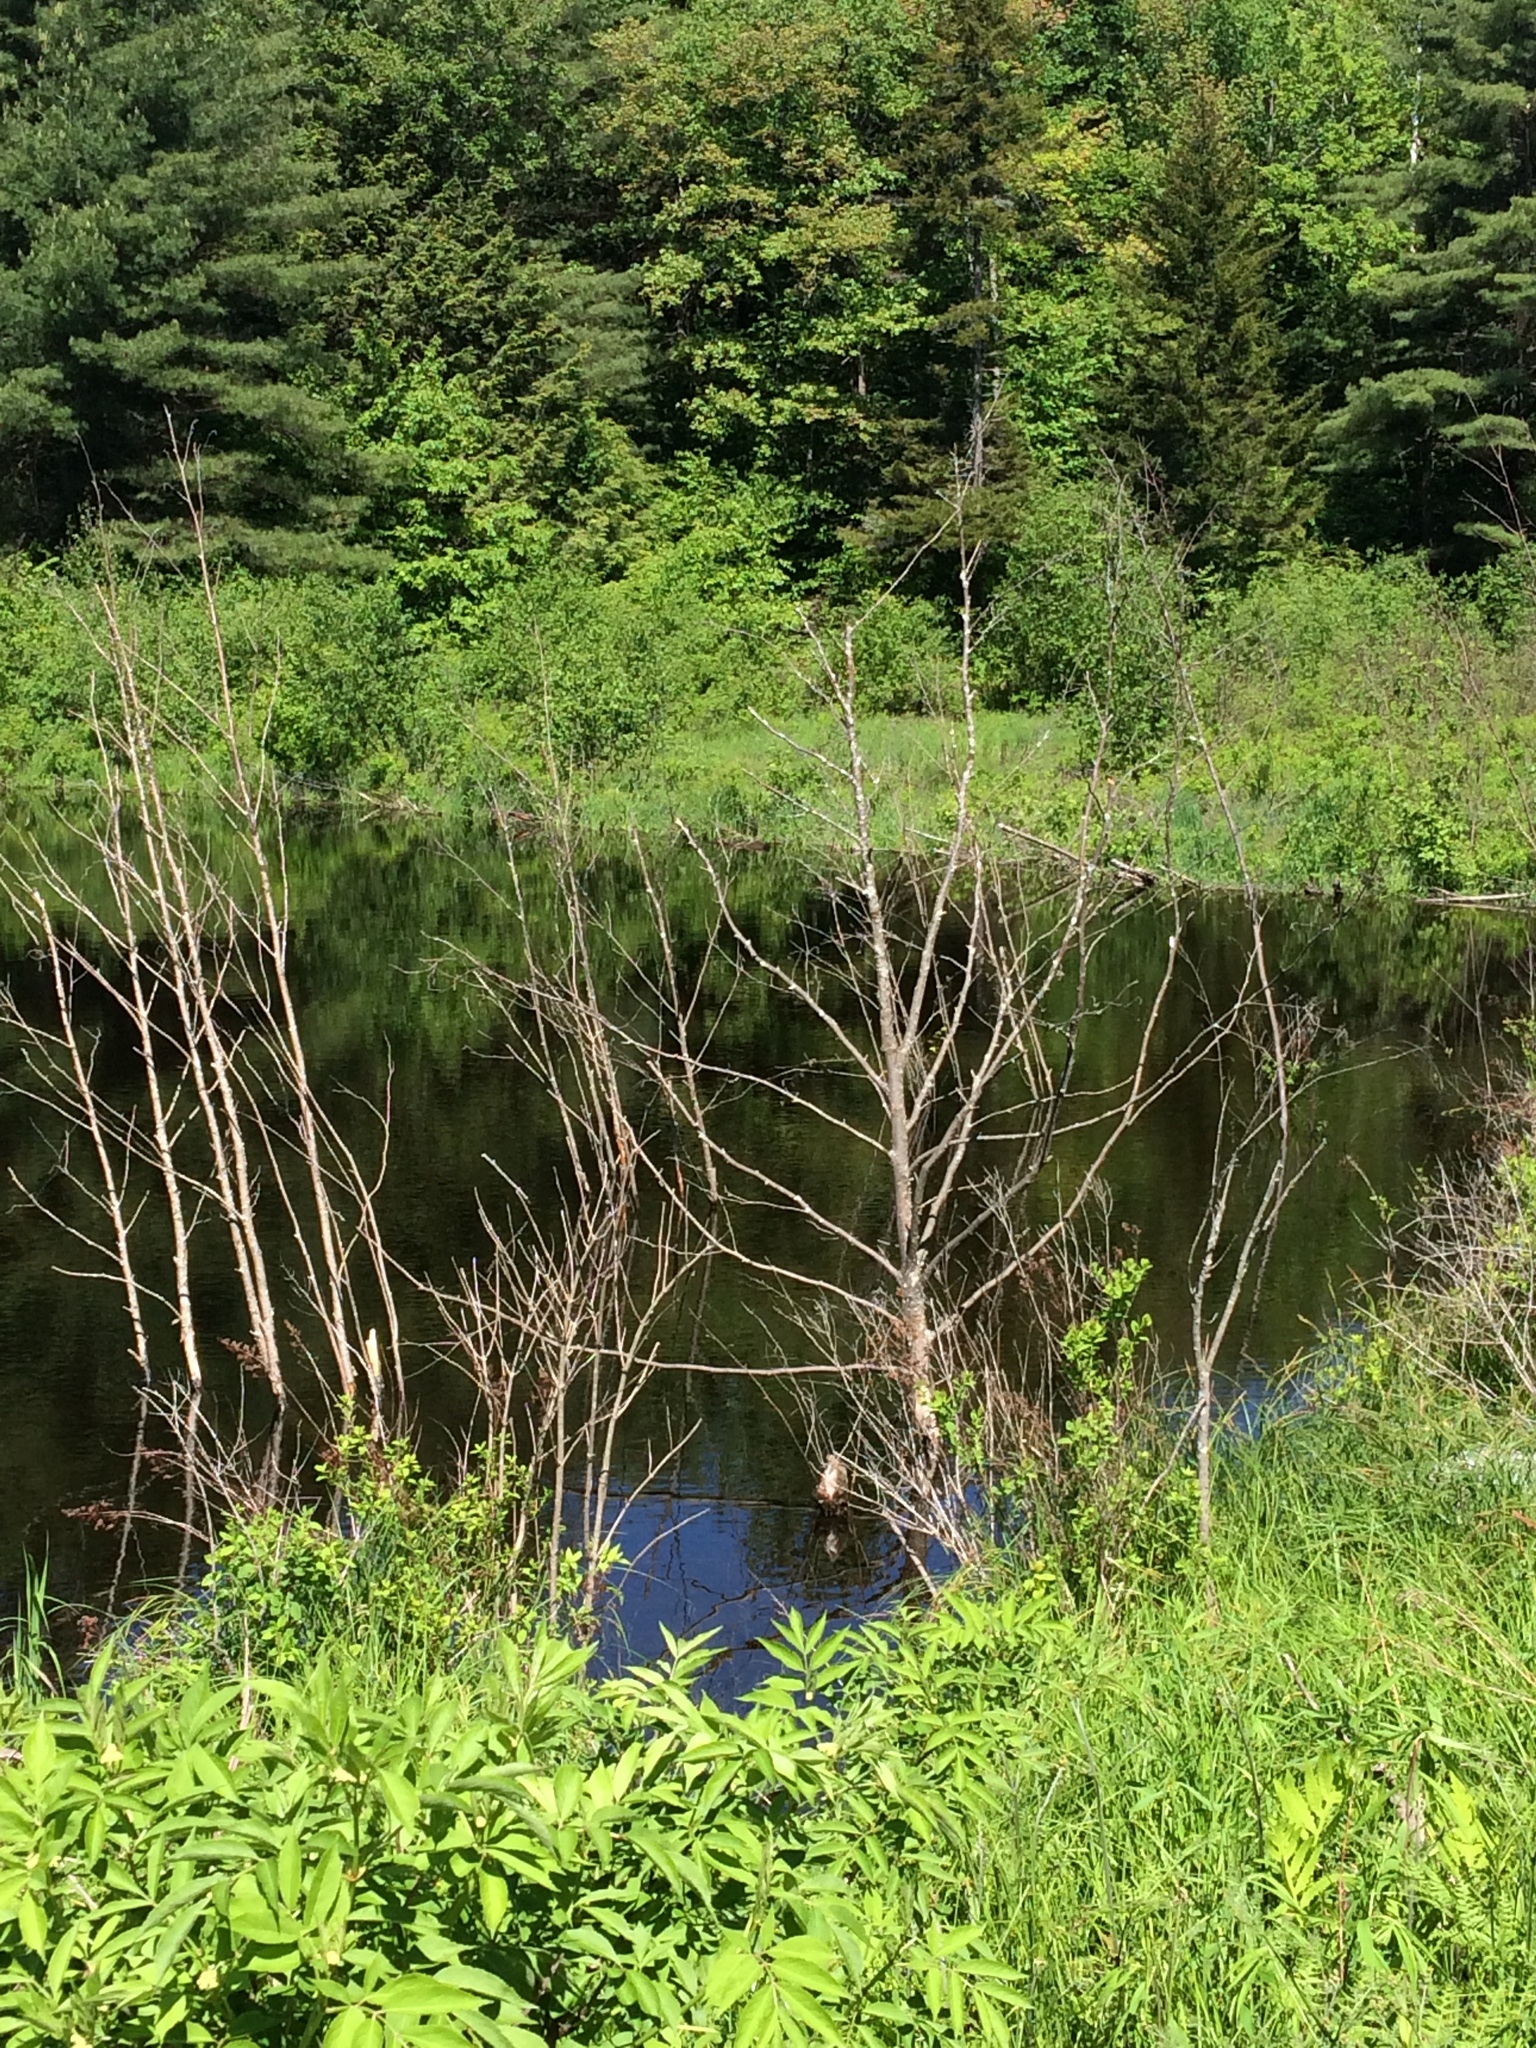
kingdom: Animalia
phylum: Chordata
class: Mammalia
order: Rodentia
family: Castoridae
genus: Castor
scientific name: Castor canadensis
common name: American beaver
